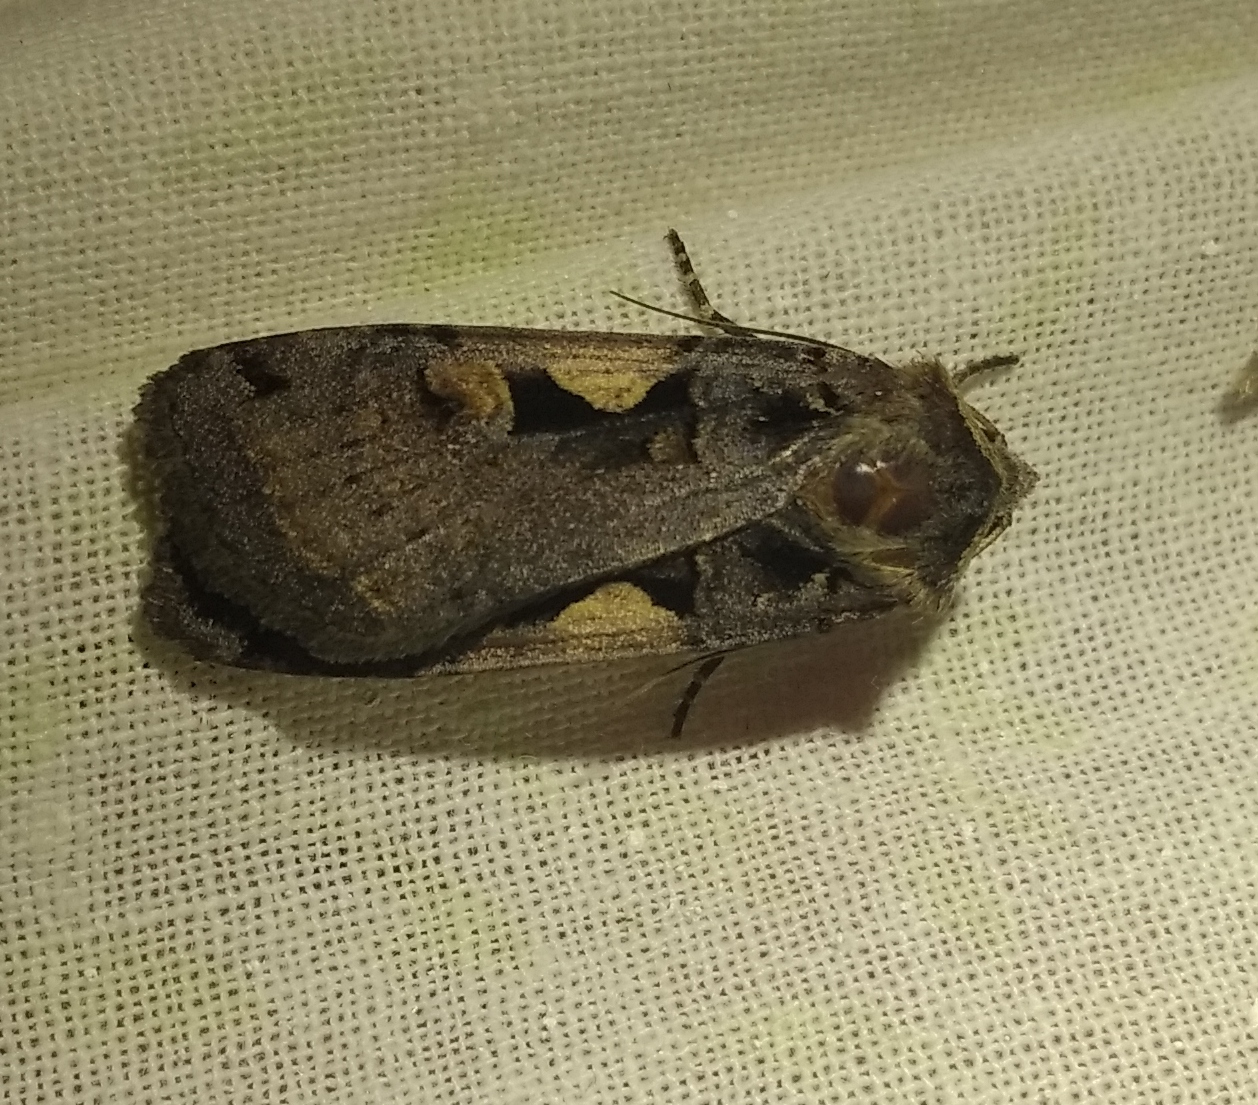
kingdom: Animalia
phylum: Arthropoda
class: Insecta
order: Lepidoptera
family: Noctuidae
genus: Xestia
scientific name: Xestia c-nigrum
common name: Setaceous hebrew character
